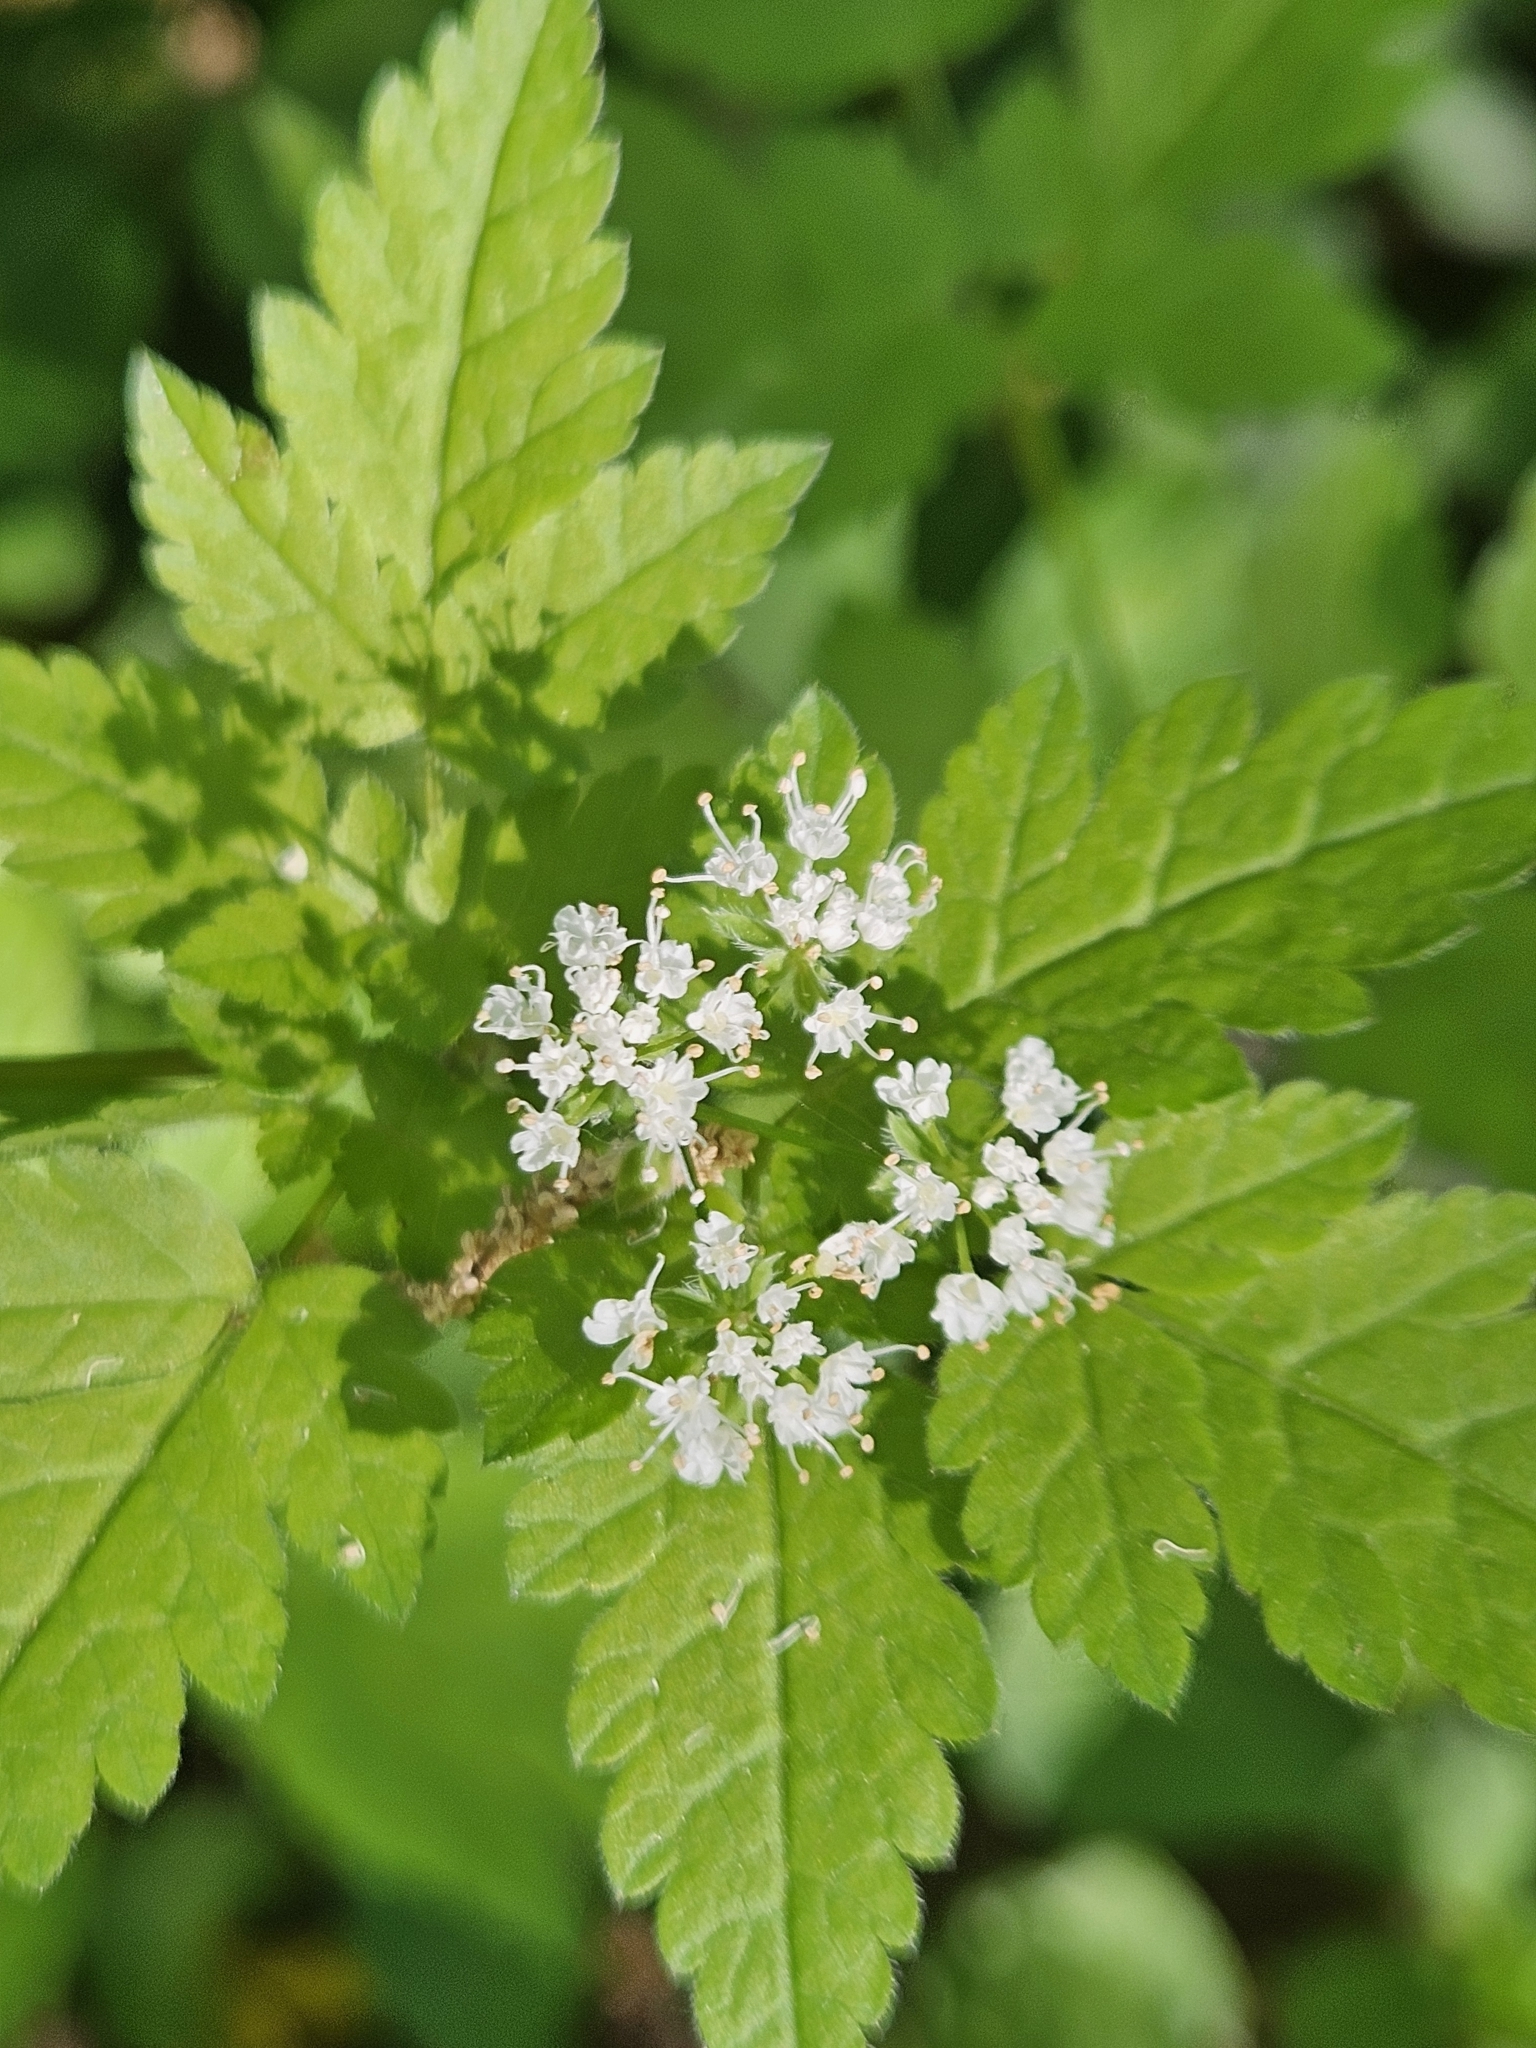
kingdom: Plantae
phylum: Tracheophyta
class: Magnoliopsida
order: Apiales
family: Apiaceae
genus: Osmorhiza
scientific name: Osmorhiza longistylis
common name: Smooth sweet cicely
